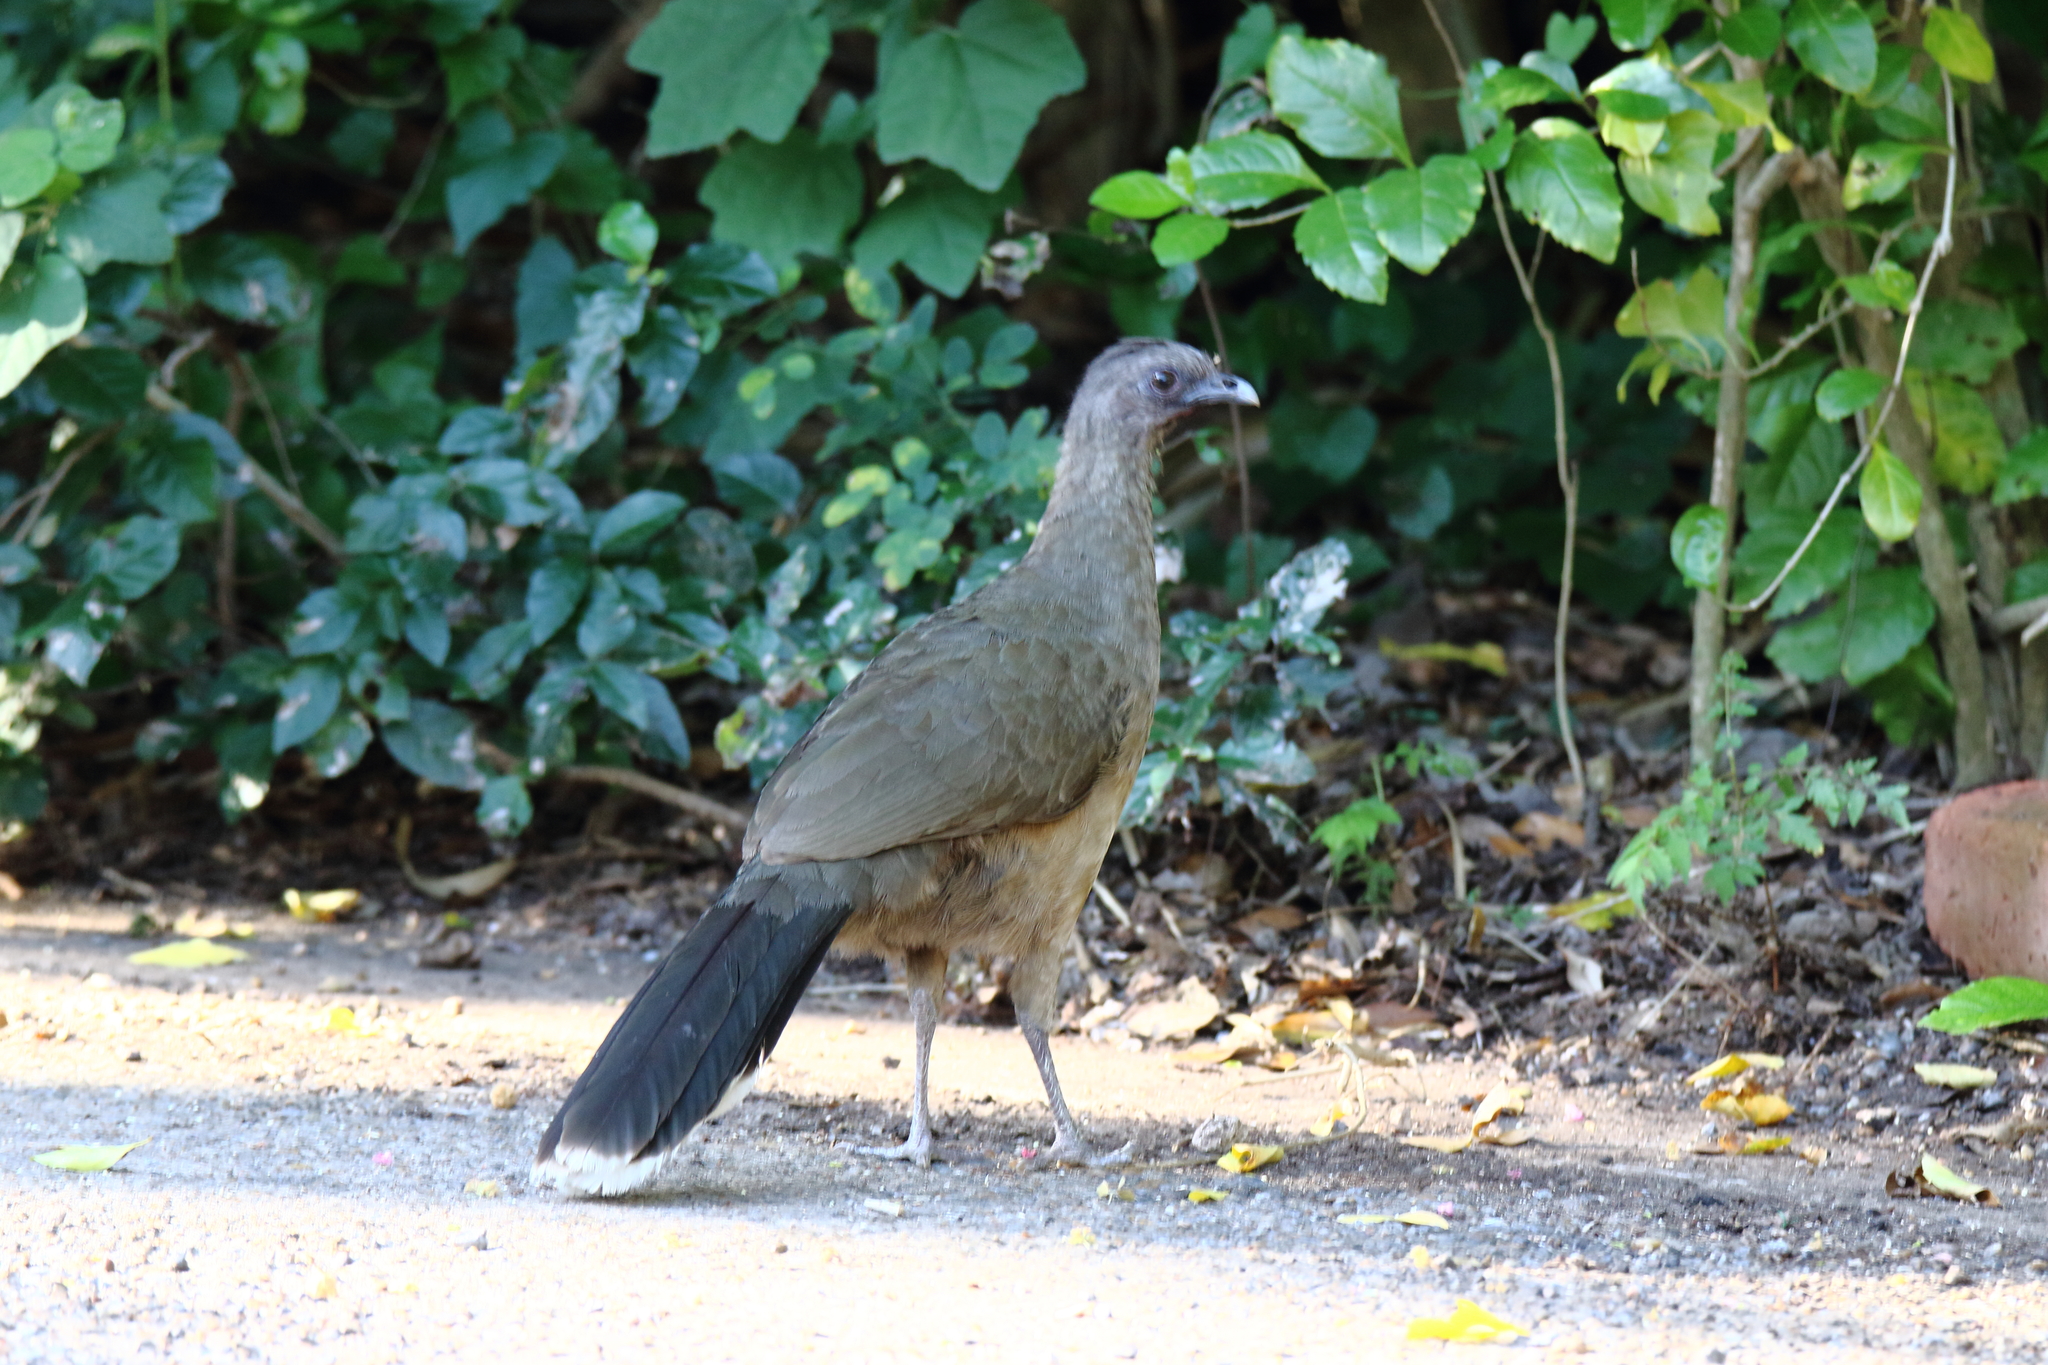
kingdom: Animalia
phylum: Chordata
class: Aves
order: Galliformes
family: Cracidae
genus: Ortalis
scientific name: Ortalis vetula
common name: Plain chachalaca
